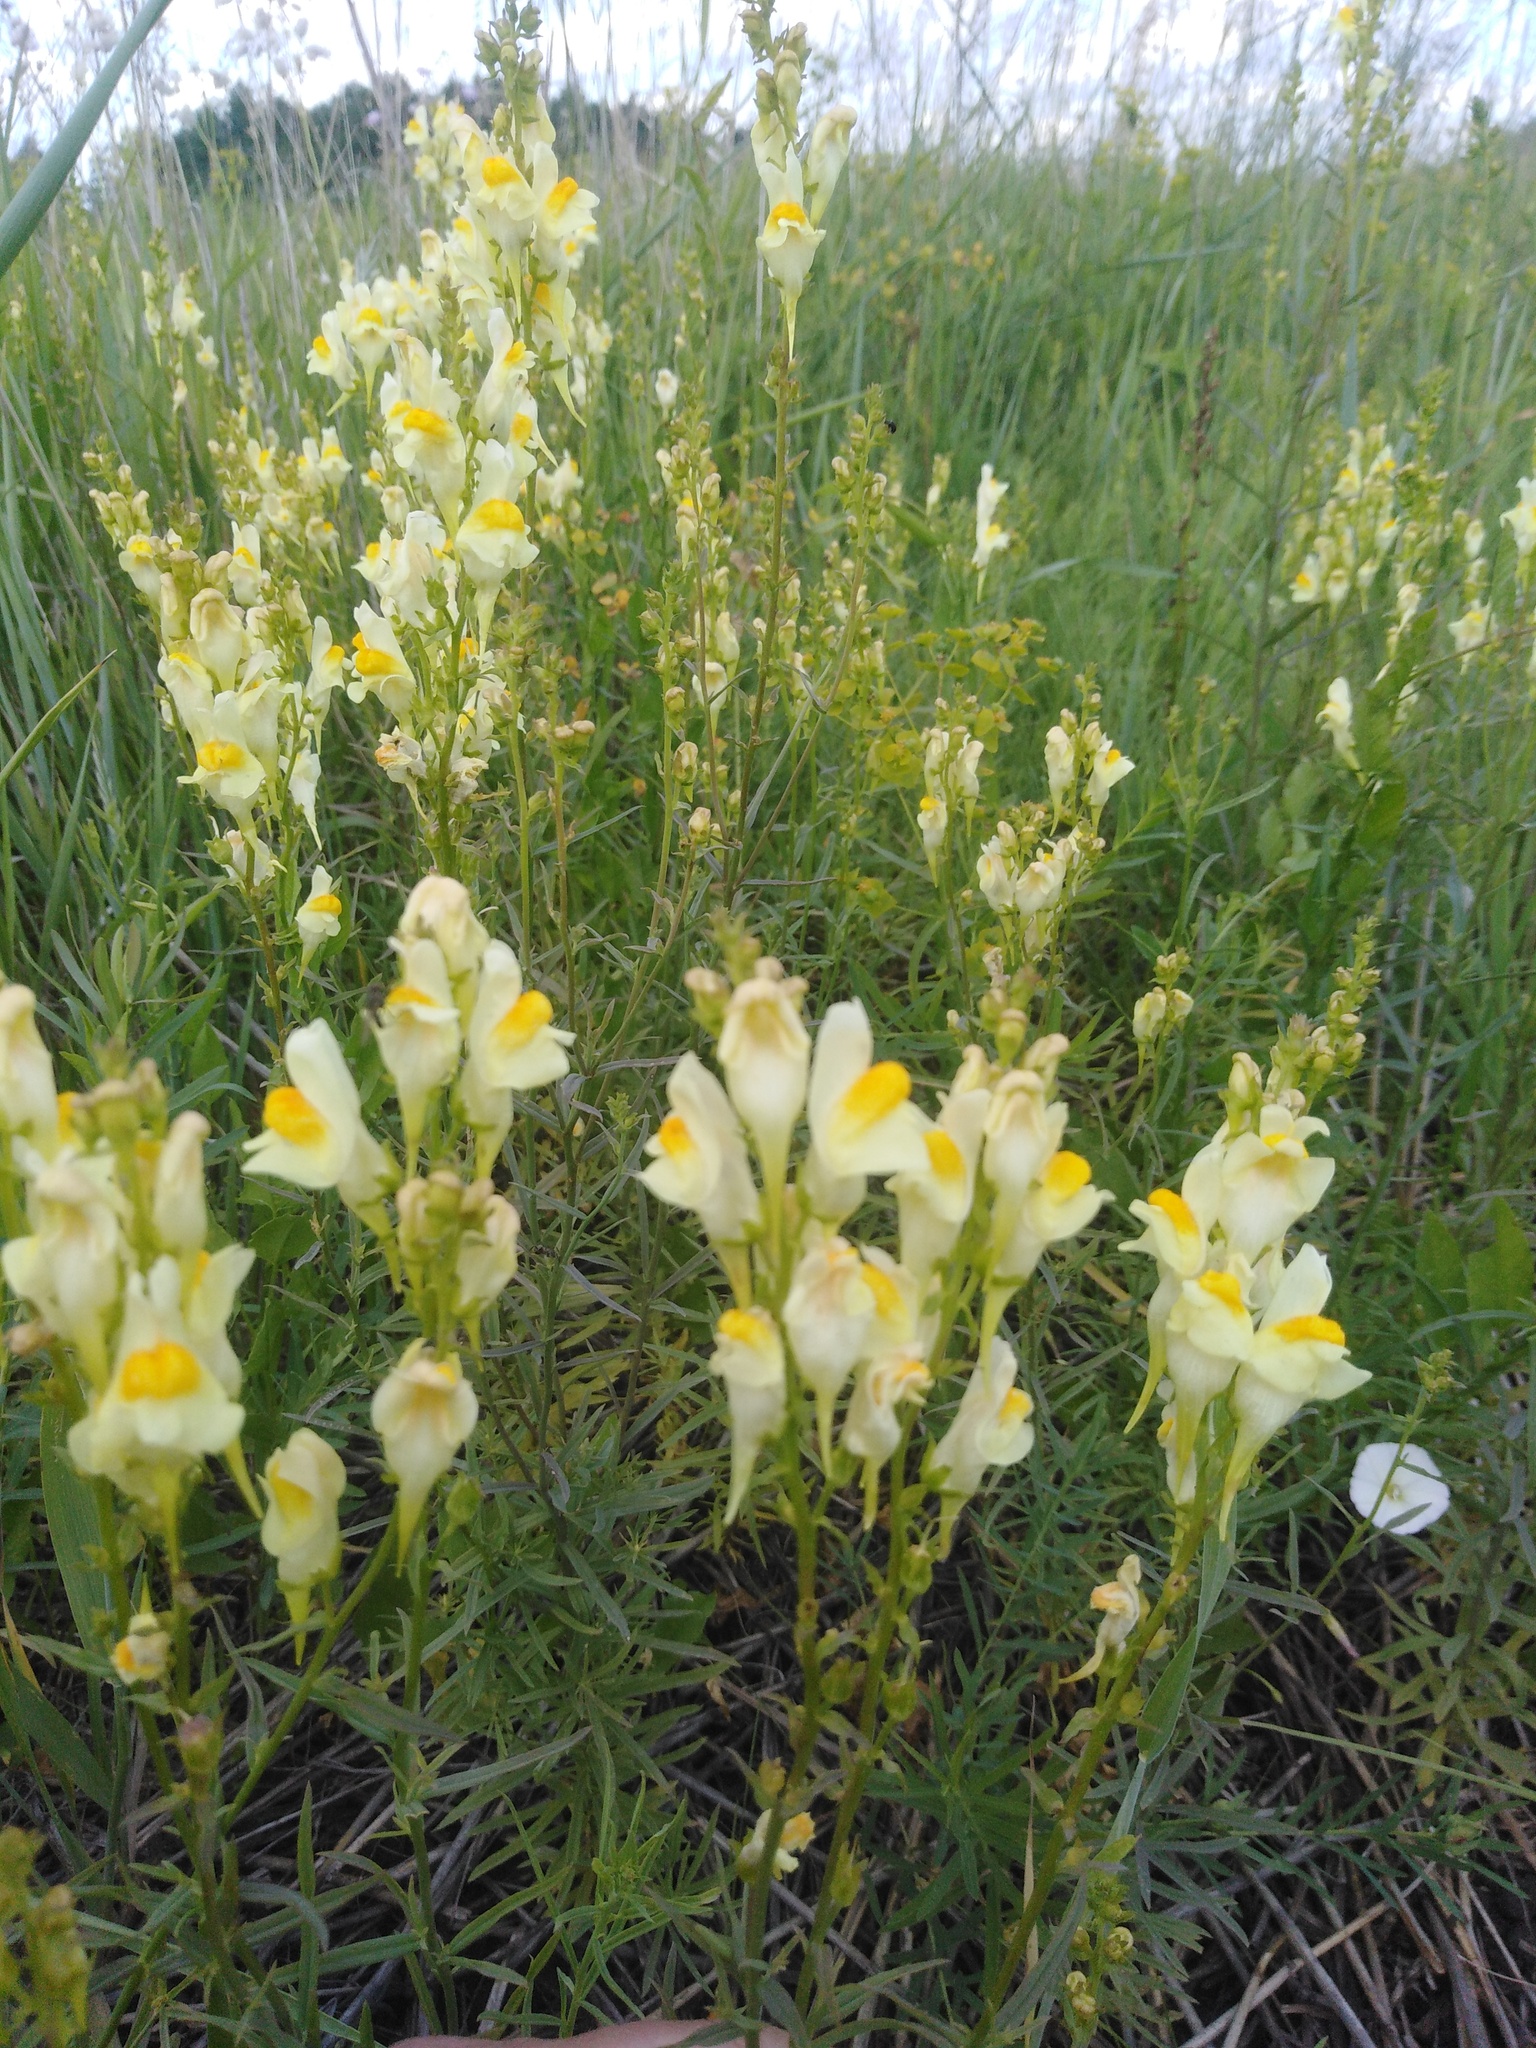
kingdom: Plantae
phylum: Tracheophyta
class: Magnoliopsida
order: Lamiales
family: Plantaginaceae
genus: Linaria
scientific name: Linaria vulgaris
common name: Butter and eggs
